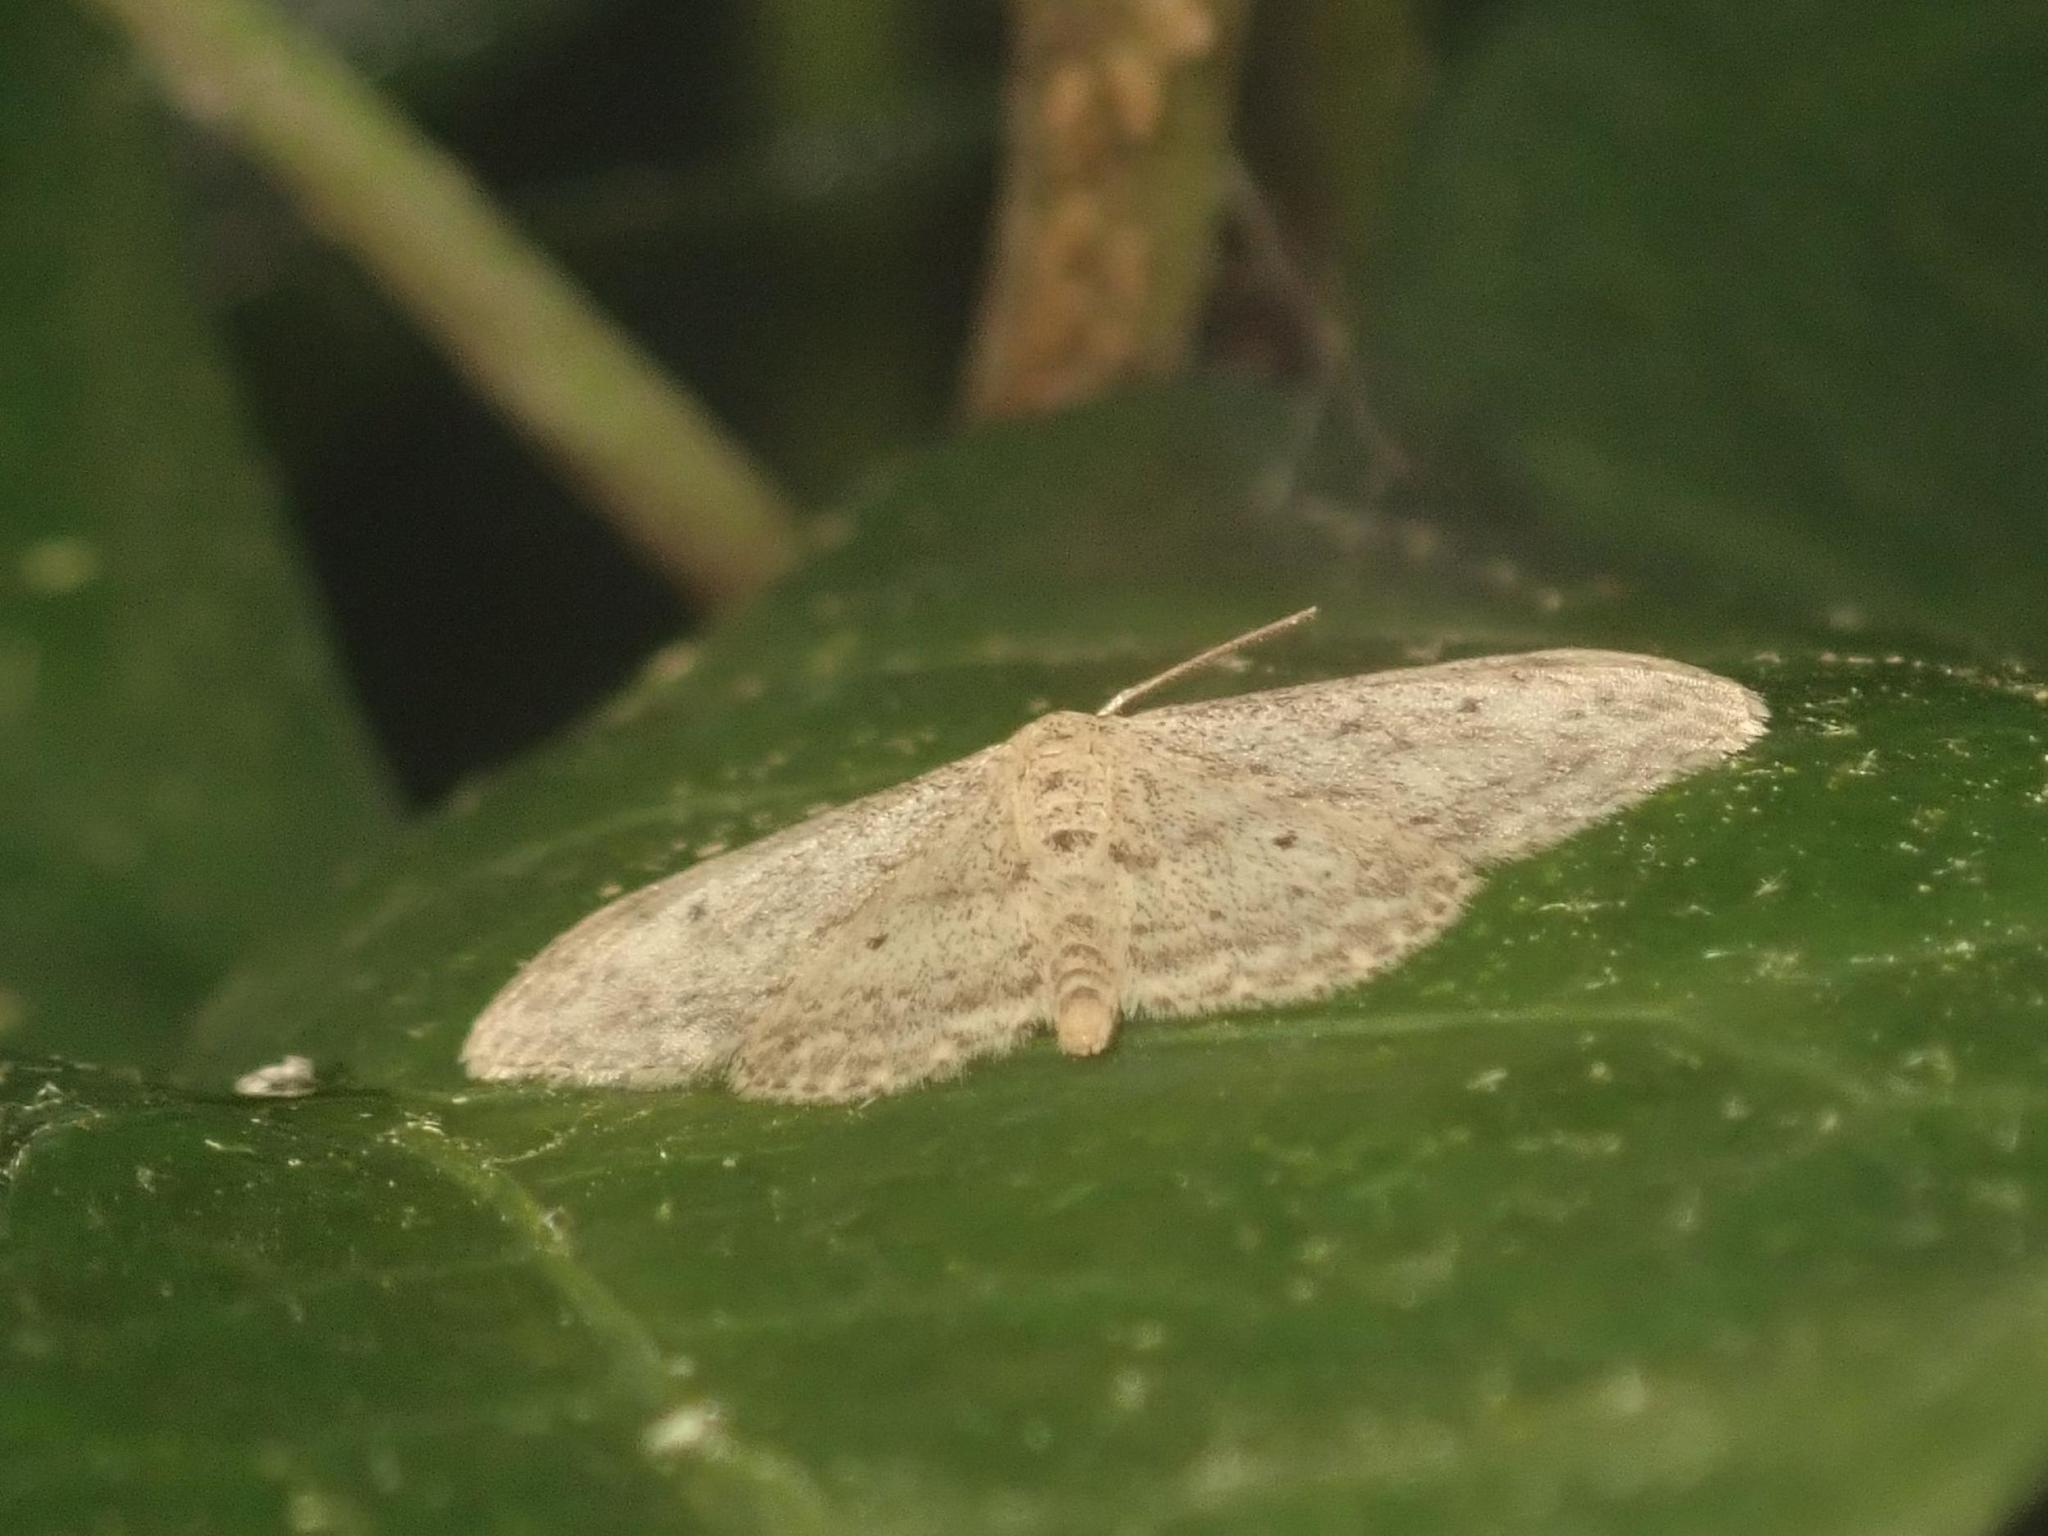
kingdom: Animalia
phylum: Arthropoda
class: Insecta
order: Lepidoptera
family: Geometridae
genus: Idaea
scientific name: Idaea seriata
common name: Small dusty wave
